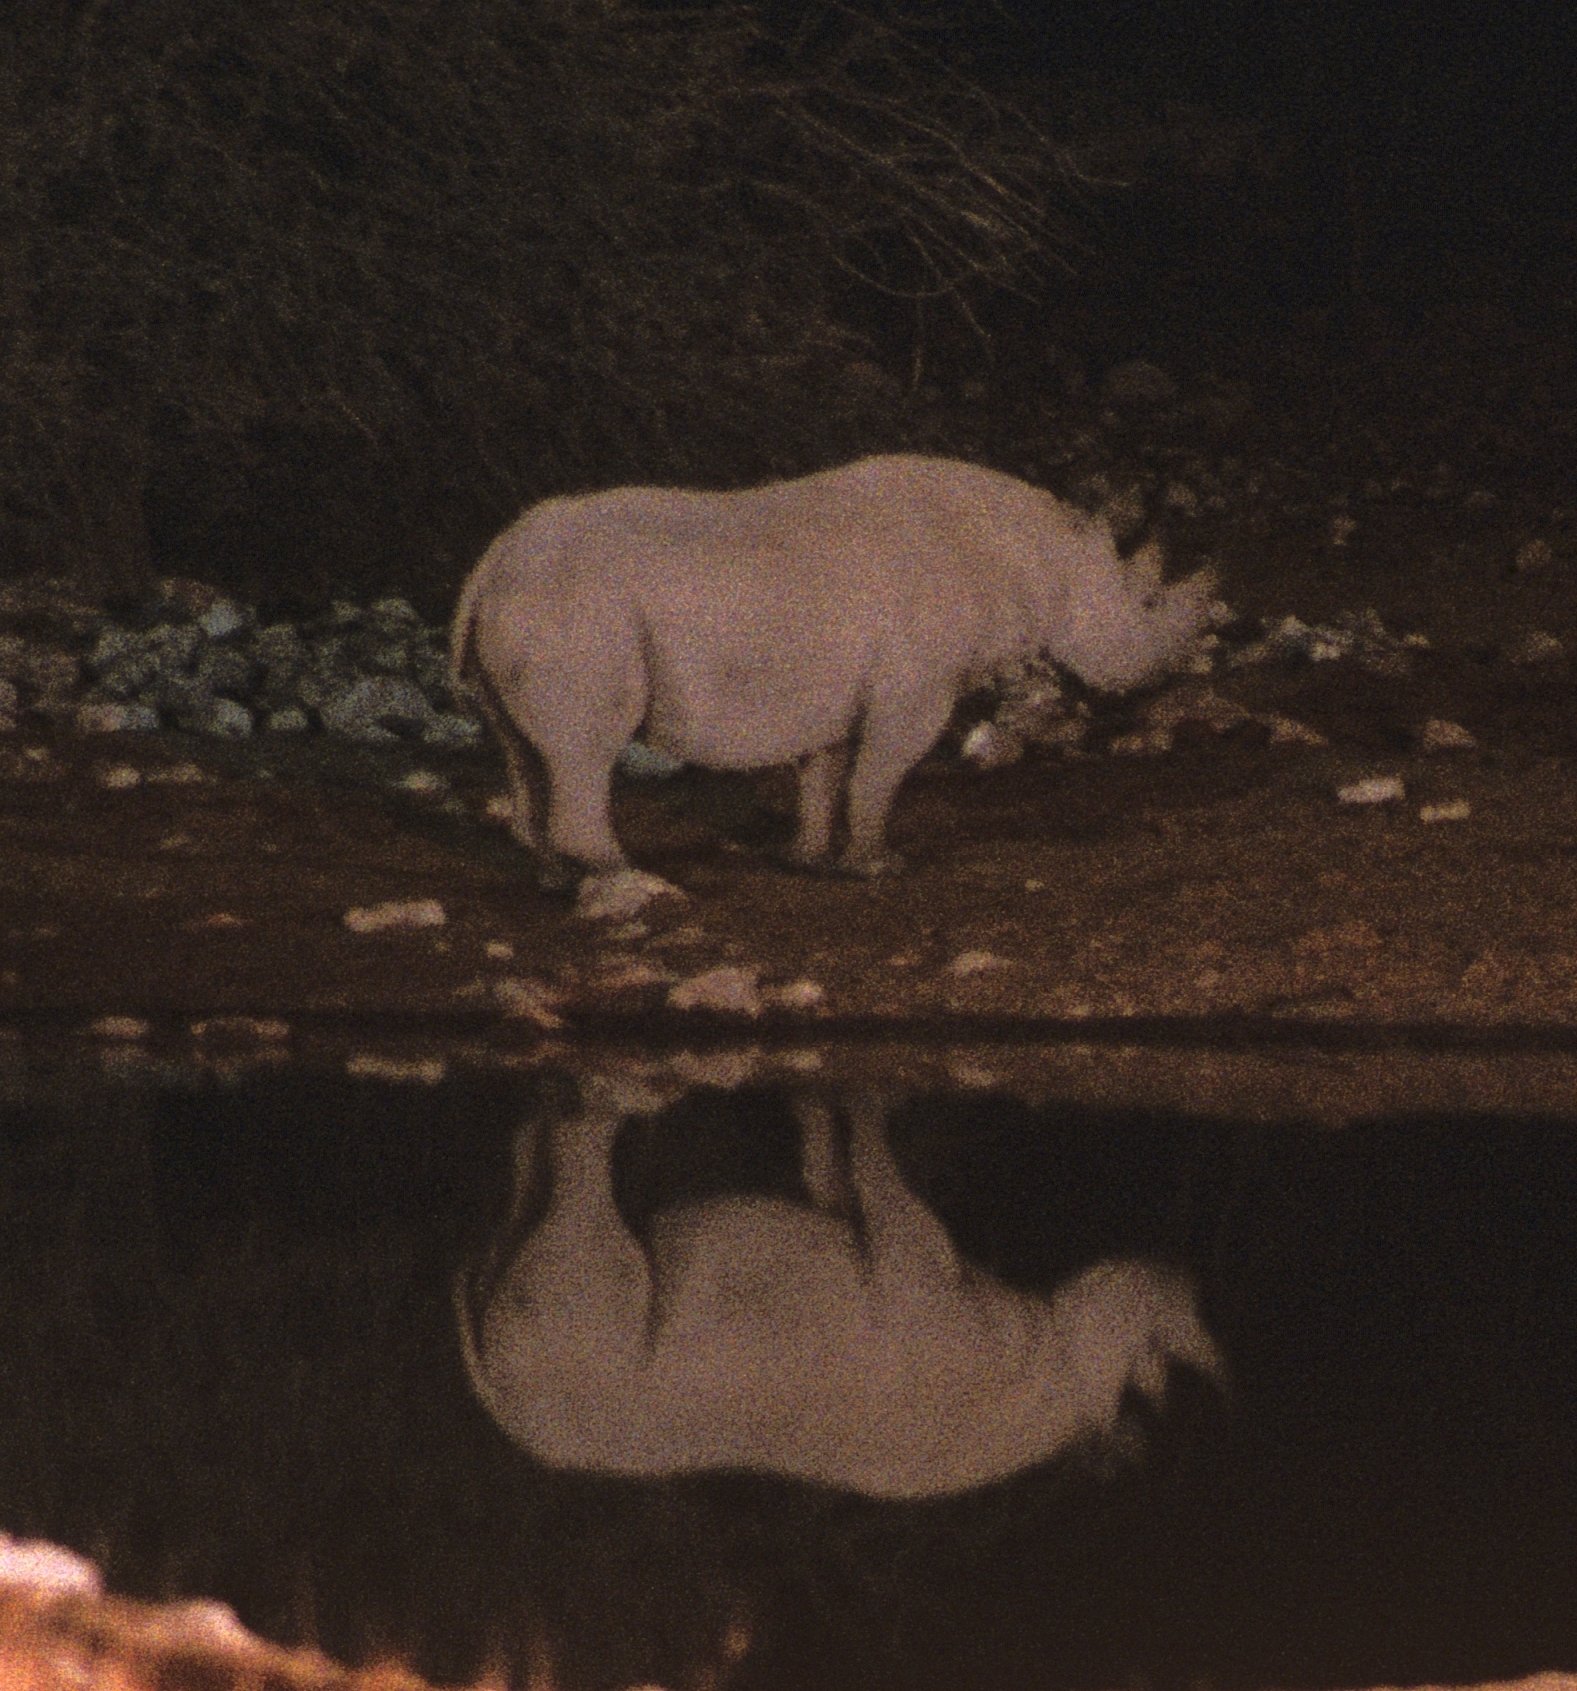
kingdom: Animalia
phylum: Chordata
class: Mammalia
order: Perissodactyla
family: Rhinocerotidae
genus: Diceros
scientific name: Diceros bicornis
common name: Black rhinoceros
